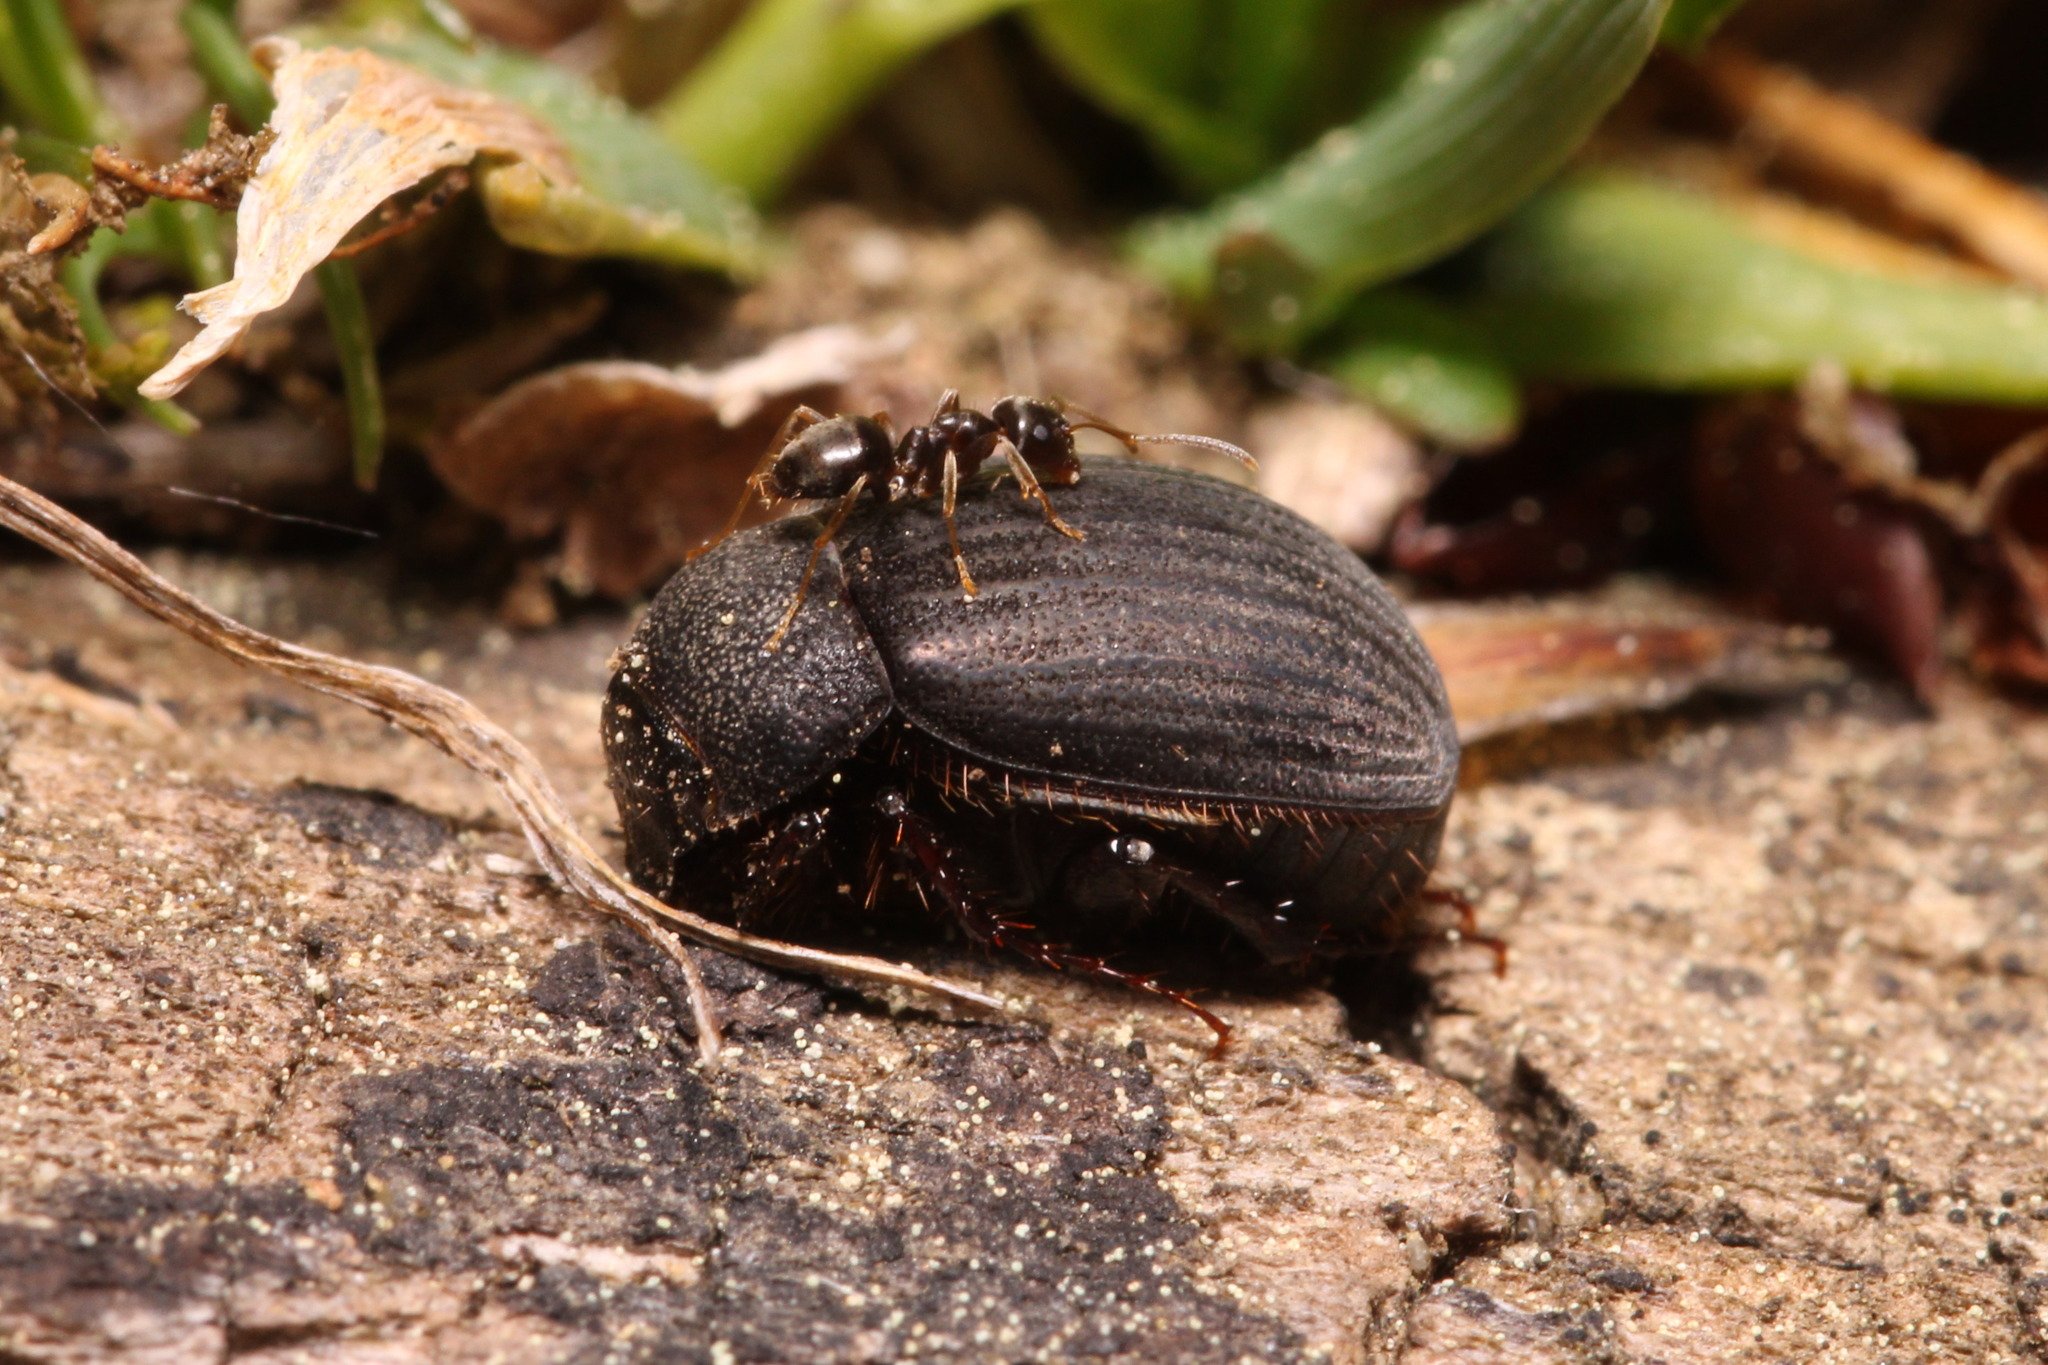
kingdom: Animalia
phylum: Arthropoda
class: Insecta
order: Coleoptera
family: Scarabaeidae
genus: Maladera
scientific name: Maladera holosericea
